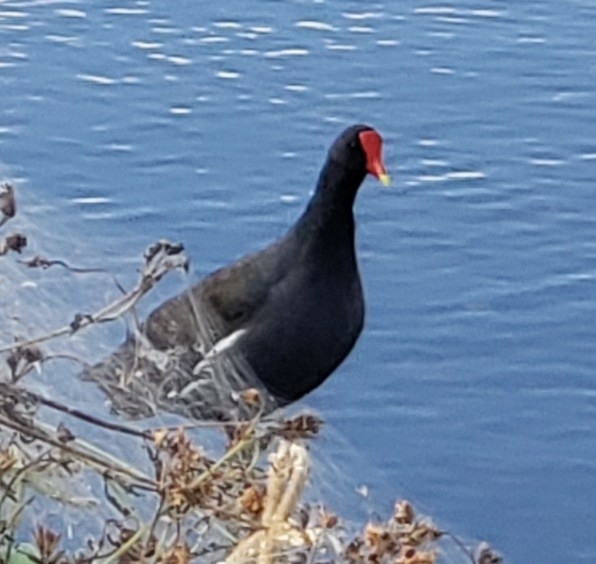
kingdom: Animalia
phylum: Chordata
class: Aves
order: Gruiformes
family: Rallidae
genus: Gallinula
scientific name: Gallinula chloropus
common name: Common moorhen
